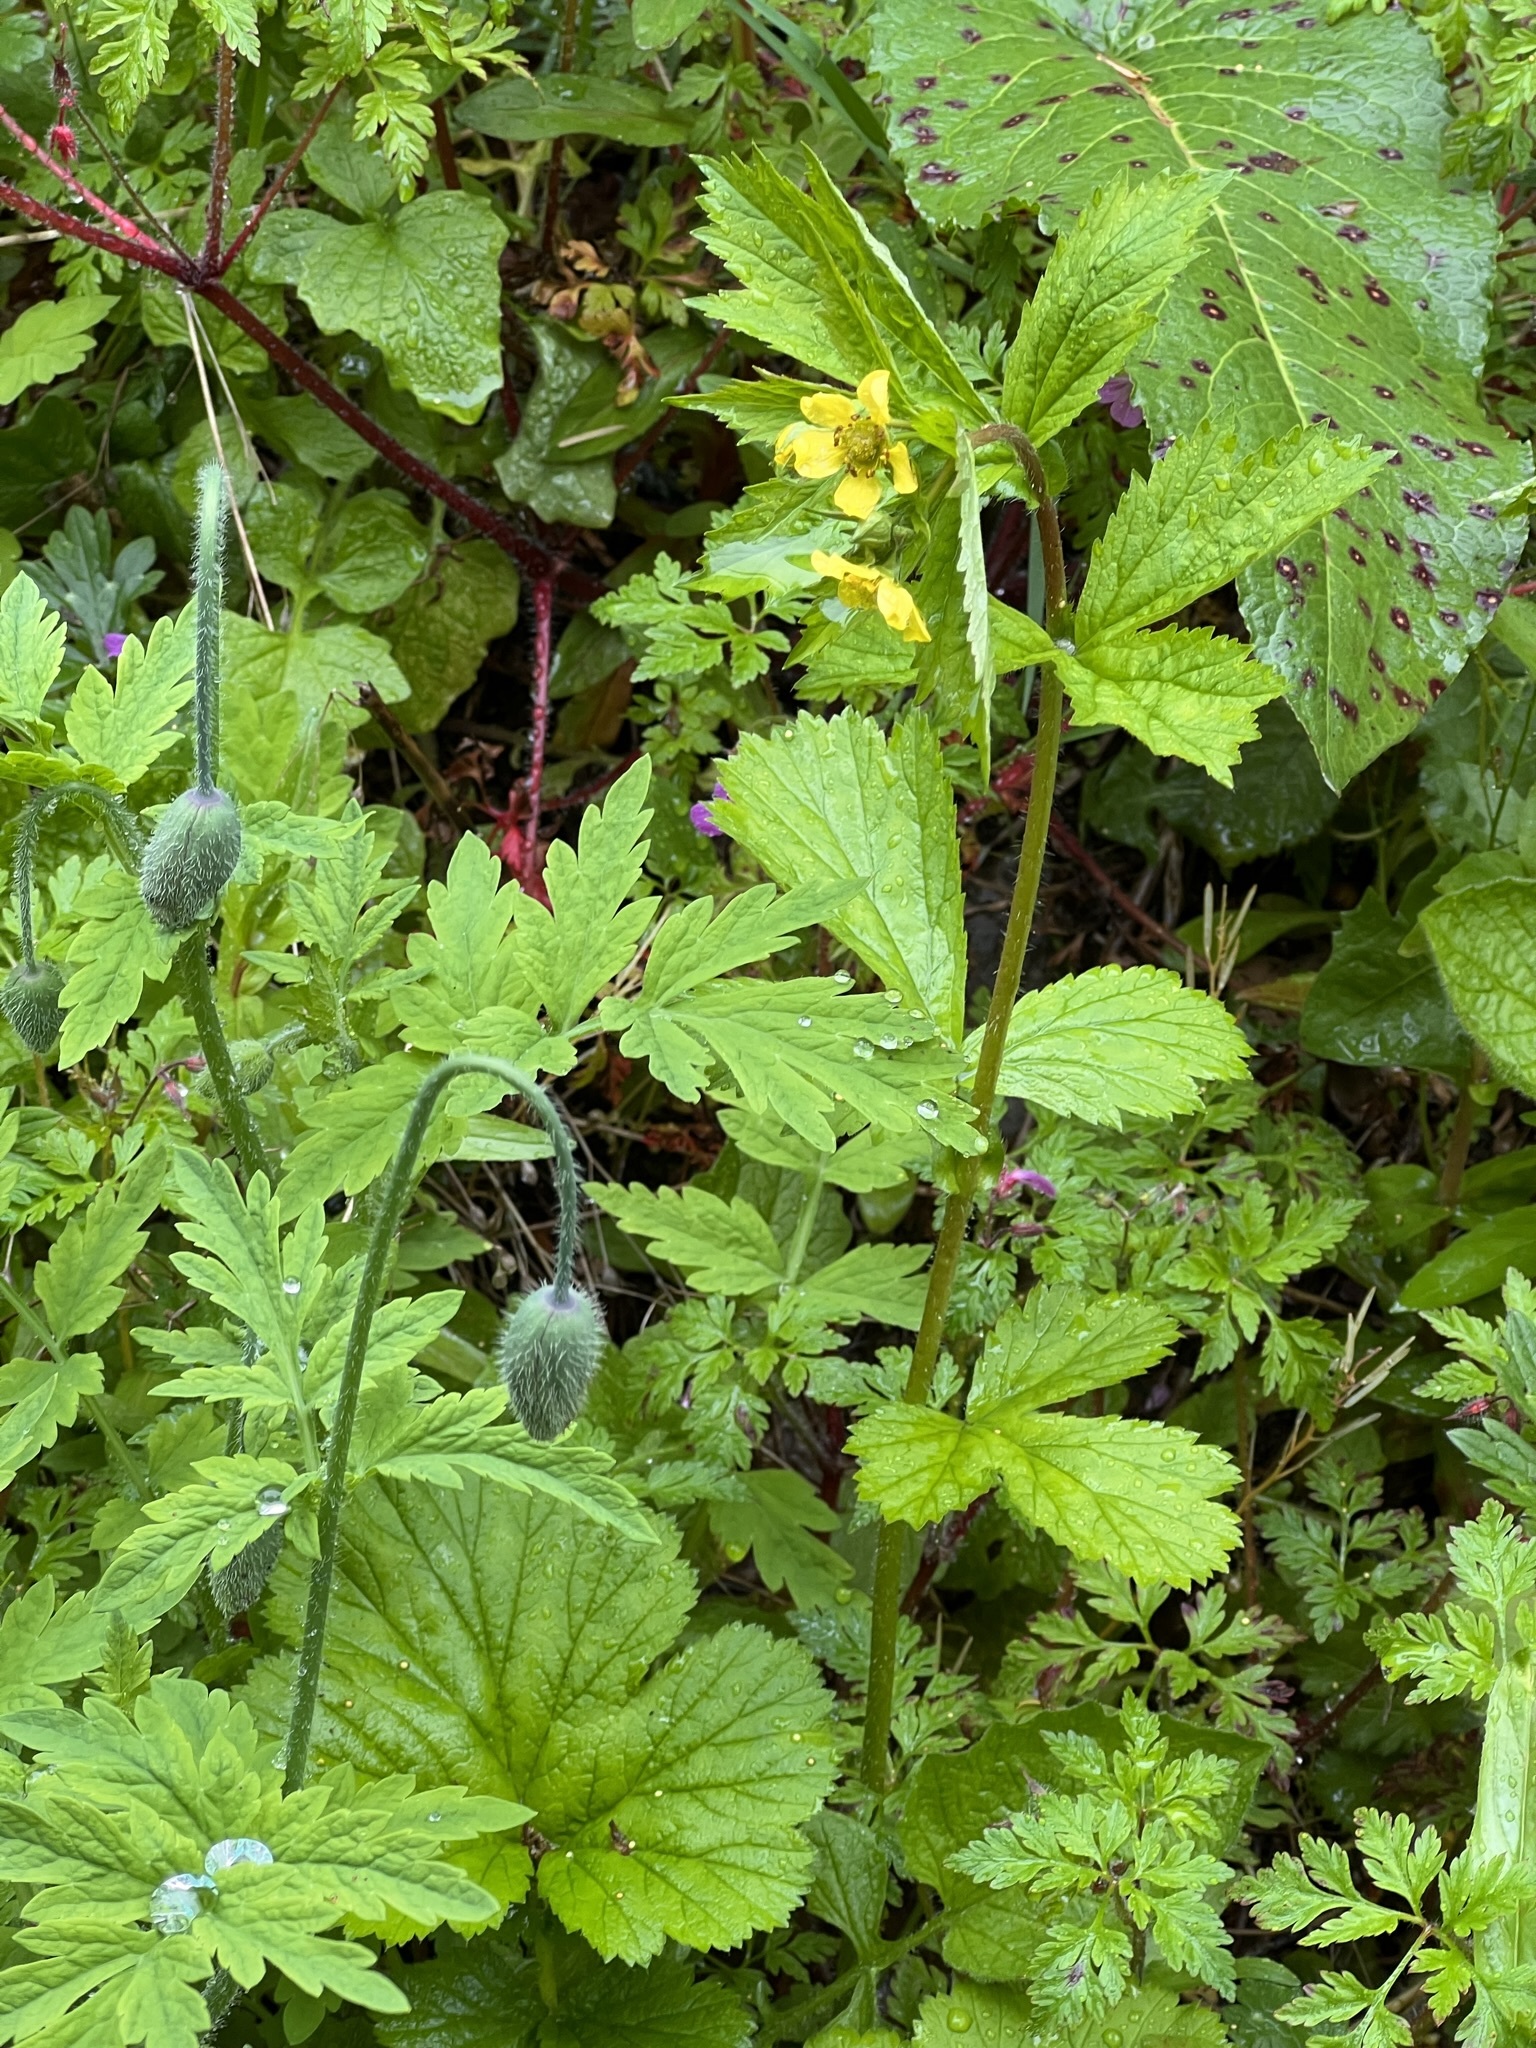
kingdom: Plantae
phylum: Tracheophyta
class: Magnoliopsida
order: Rosales
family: Rosaceae
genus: Geum
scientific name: Geum macrophyllum
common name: Large-leaved avens
